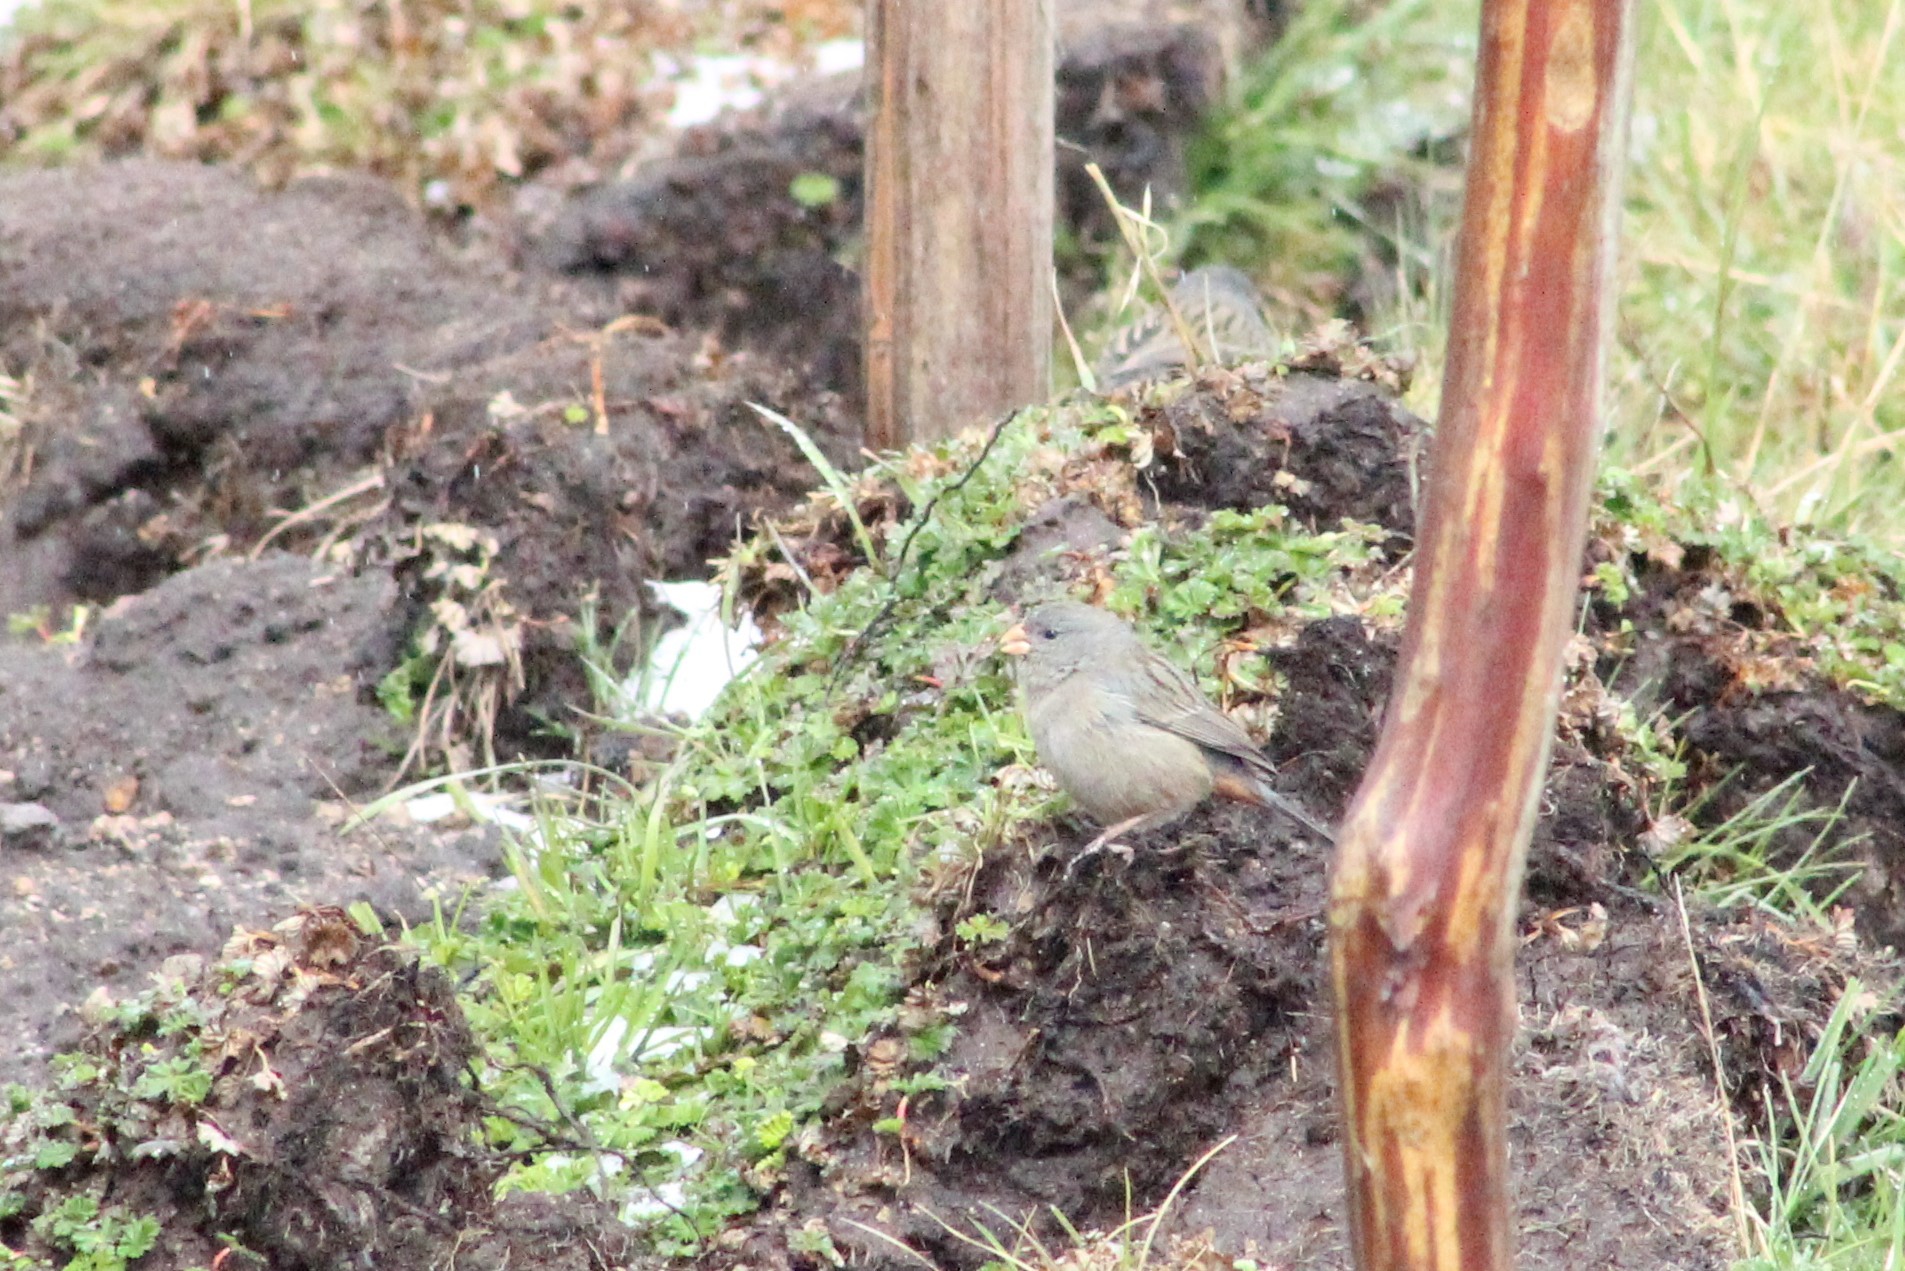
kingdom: Animalia
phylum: Chordata
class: Aves
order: Passeriformes
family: Thraupidae
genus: Catamenia
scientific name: Catamenia inornata
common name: Plain-colored seedeater
